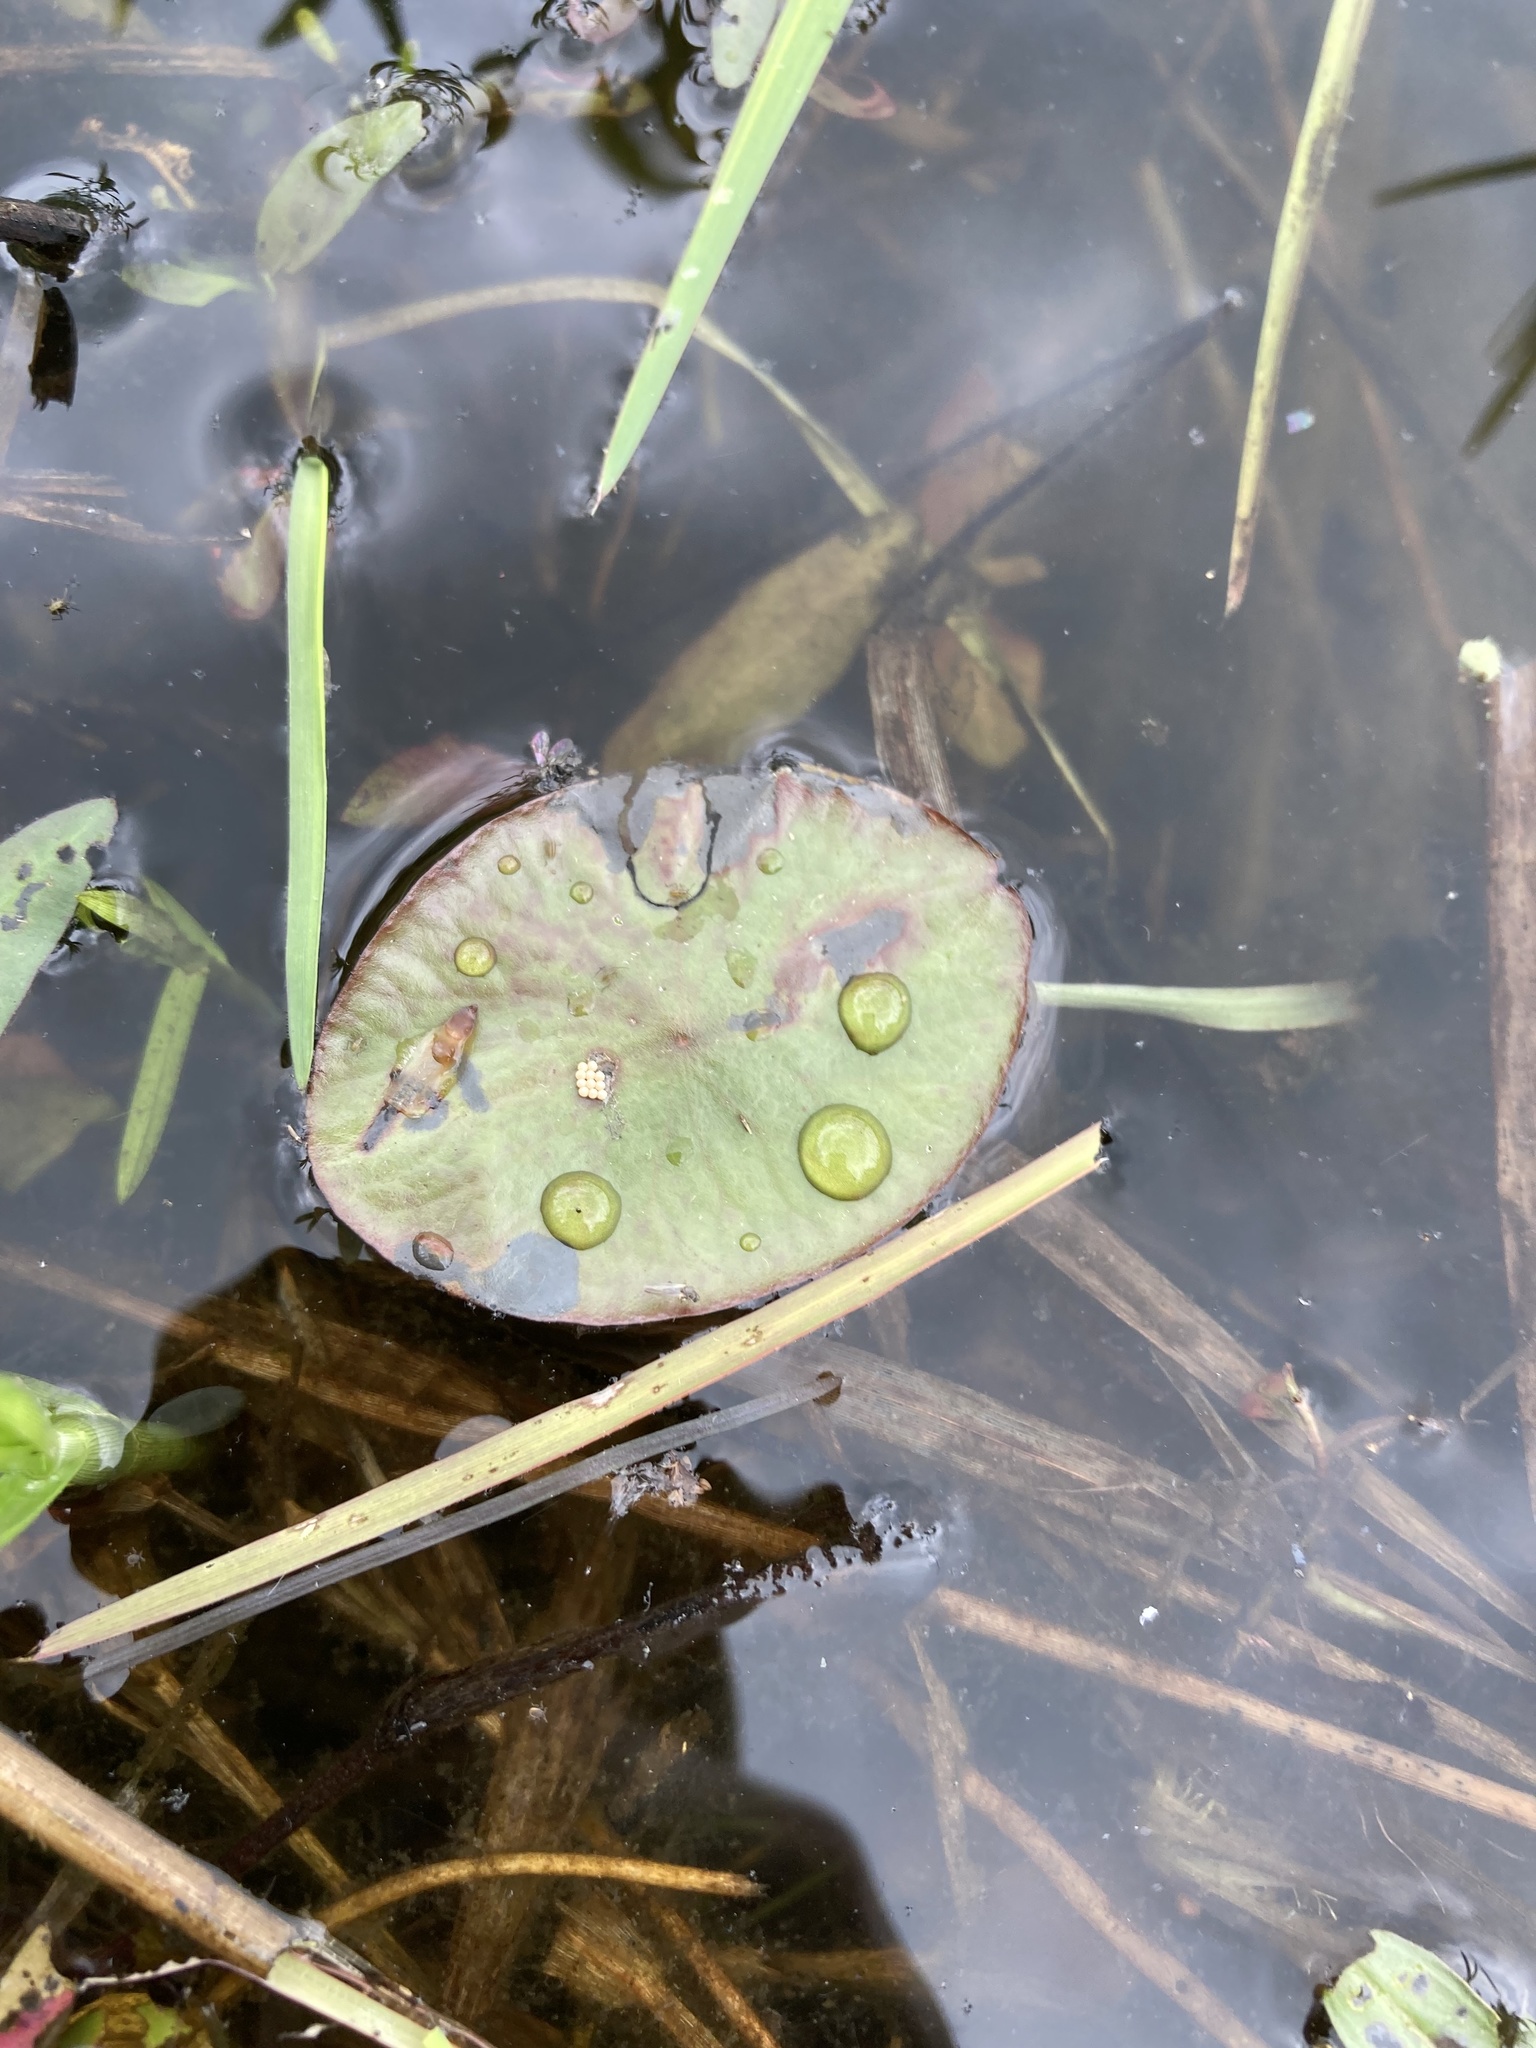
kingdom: Plantae
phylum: Tracheophyta
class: Magnoliopsida
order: Nymphaeales
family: Cabombaceae
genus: Brasenia
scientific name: Brasenia schreberi
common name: Water-shield
